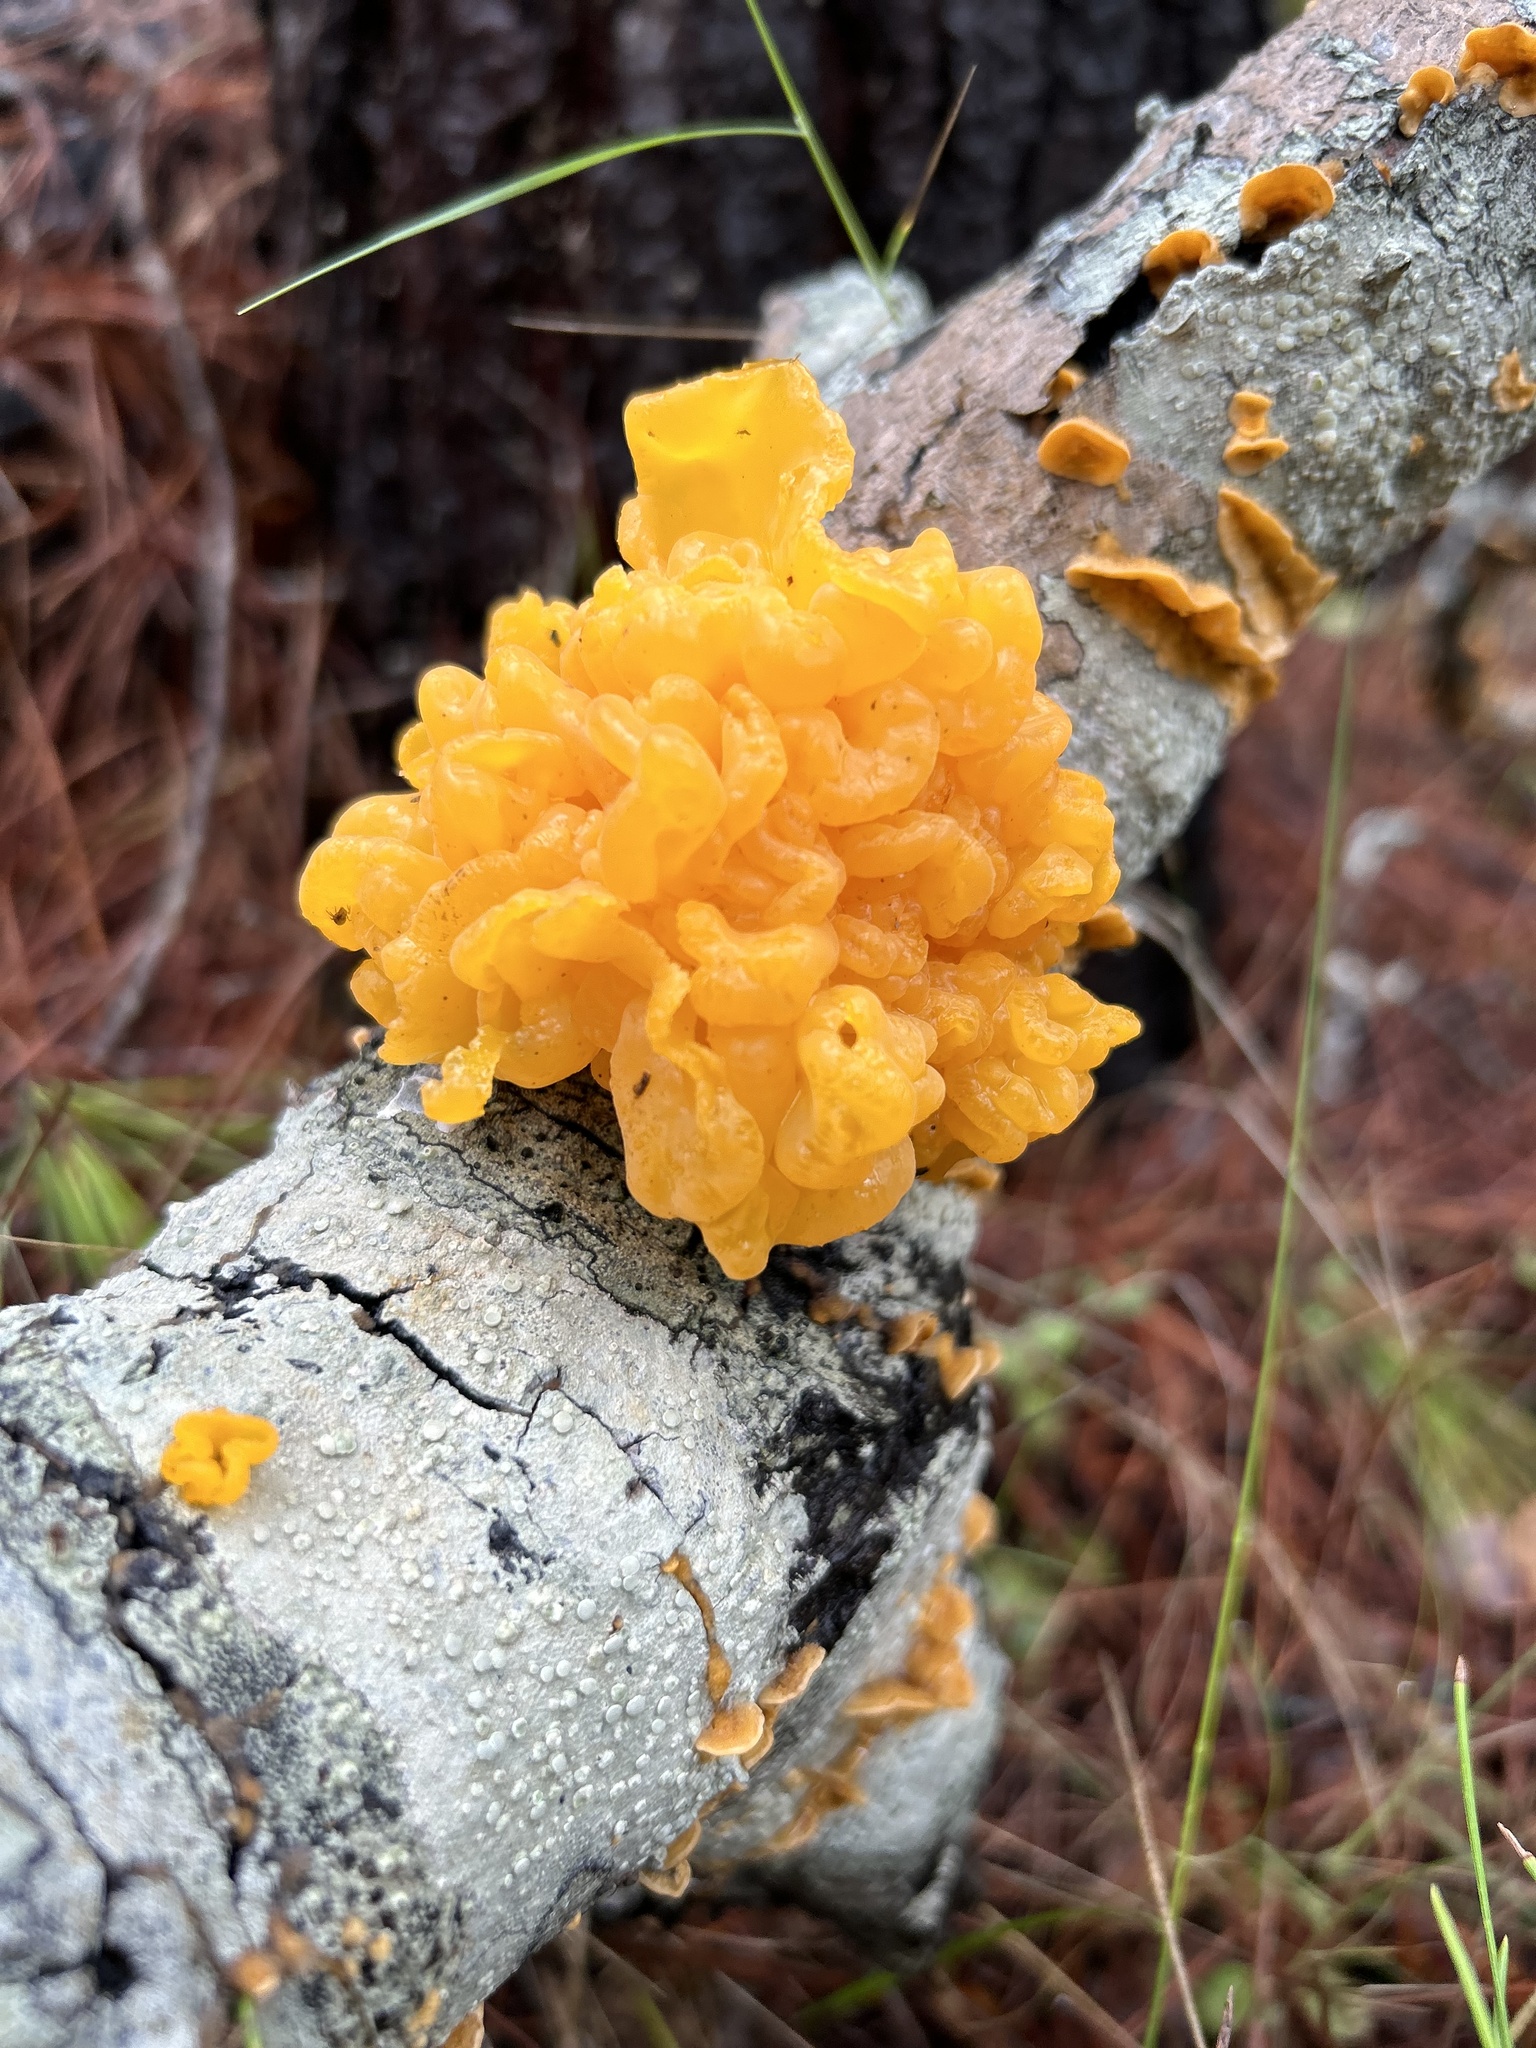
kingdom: Fungi
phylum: Basidiomycota
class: Tremellomycetes
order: Tremellales
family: Naemateliaceae
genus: Naematelia
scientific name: Naematelia aurantia
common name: Golden ear
